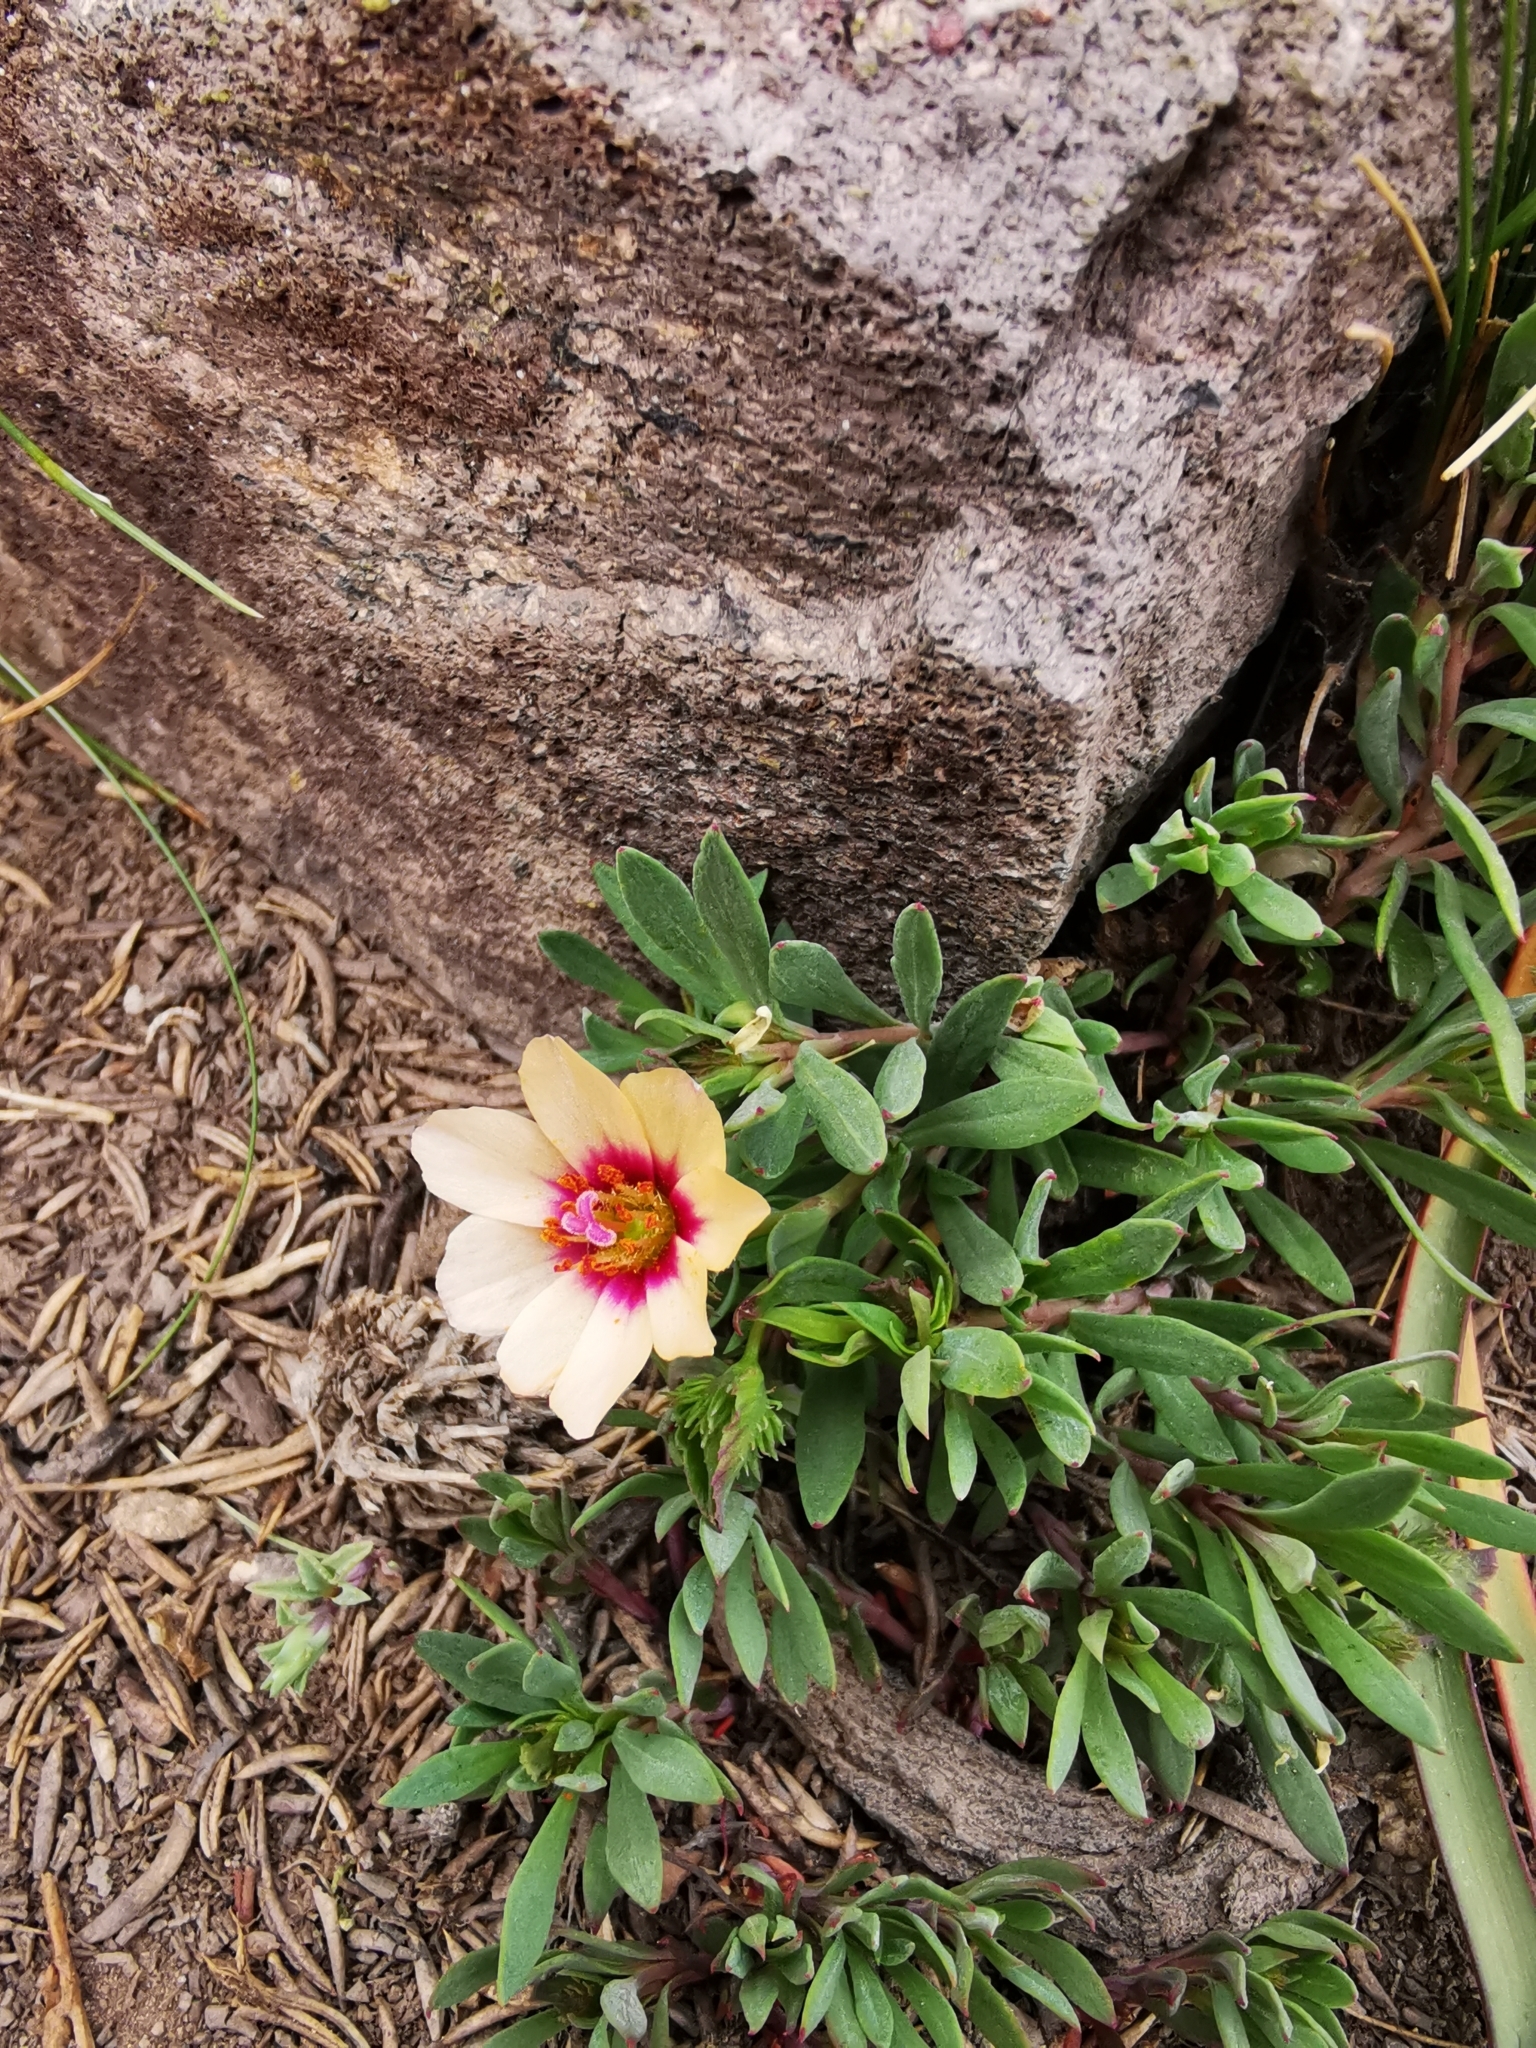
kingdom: Plantae
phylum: Tracheophyta
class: Magnoliopsida
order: Caryophyllales
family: Montiaceae
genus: Montiopsis
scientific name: Montiopsis andicola
